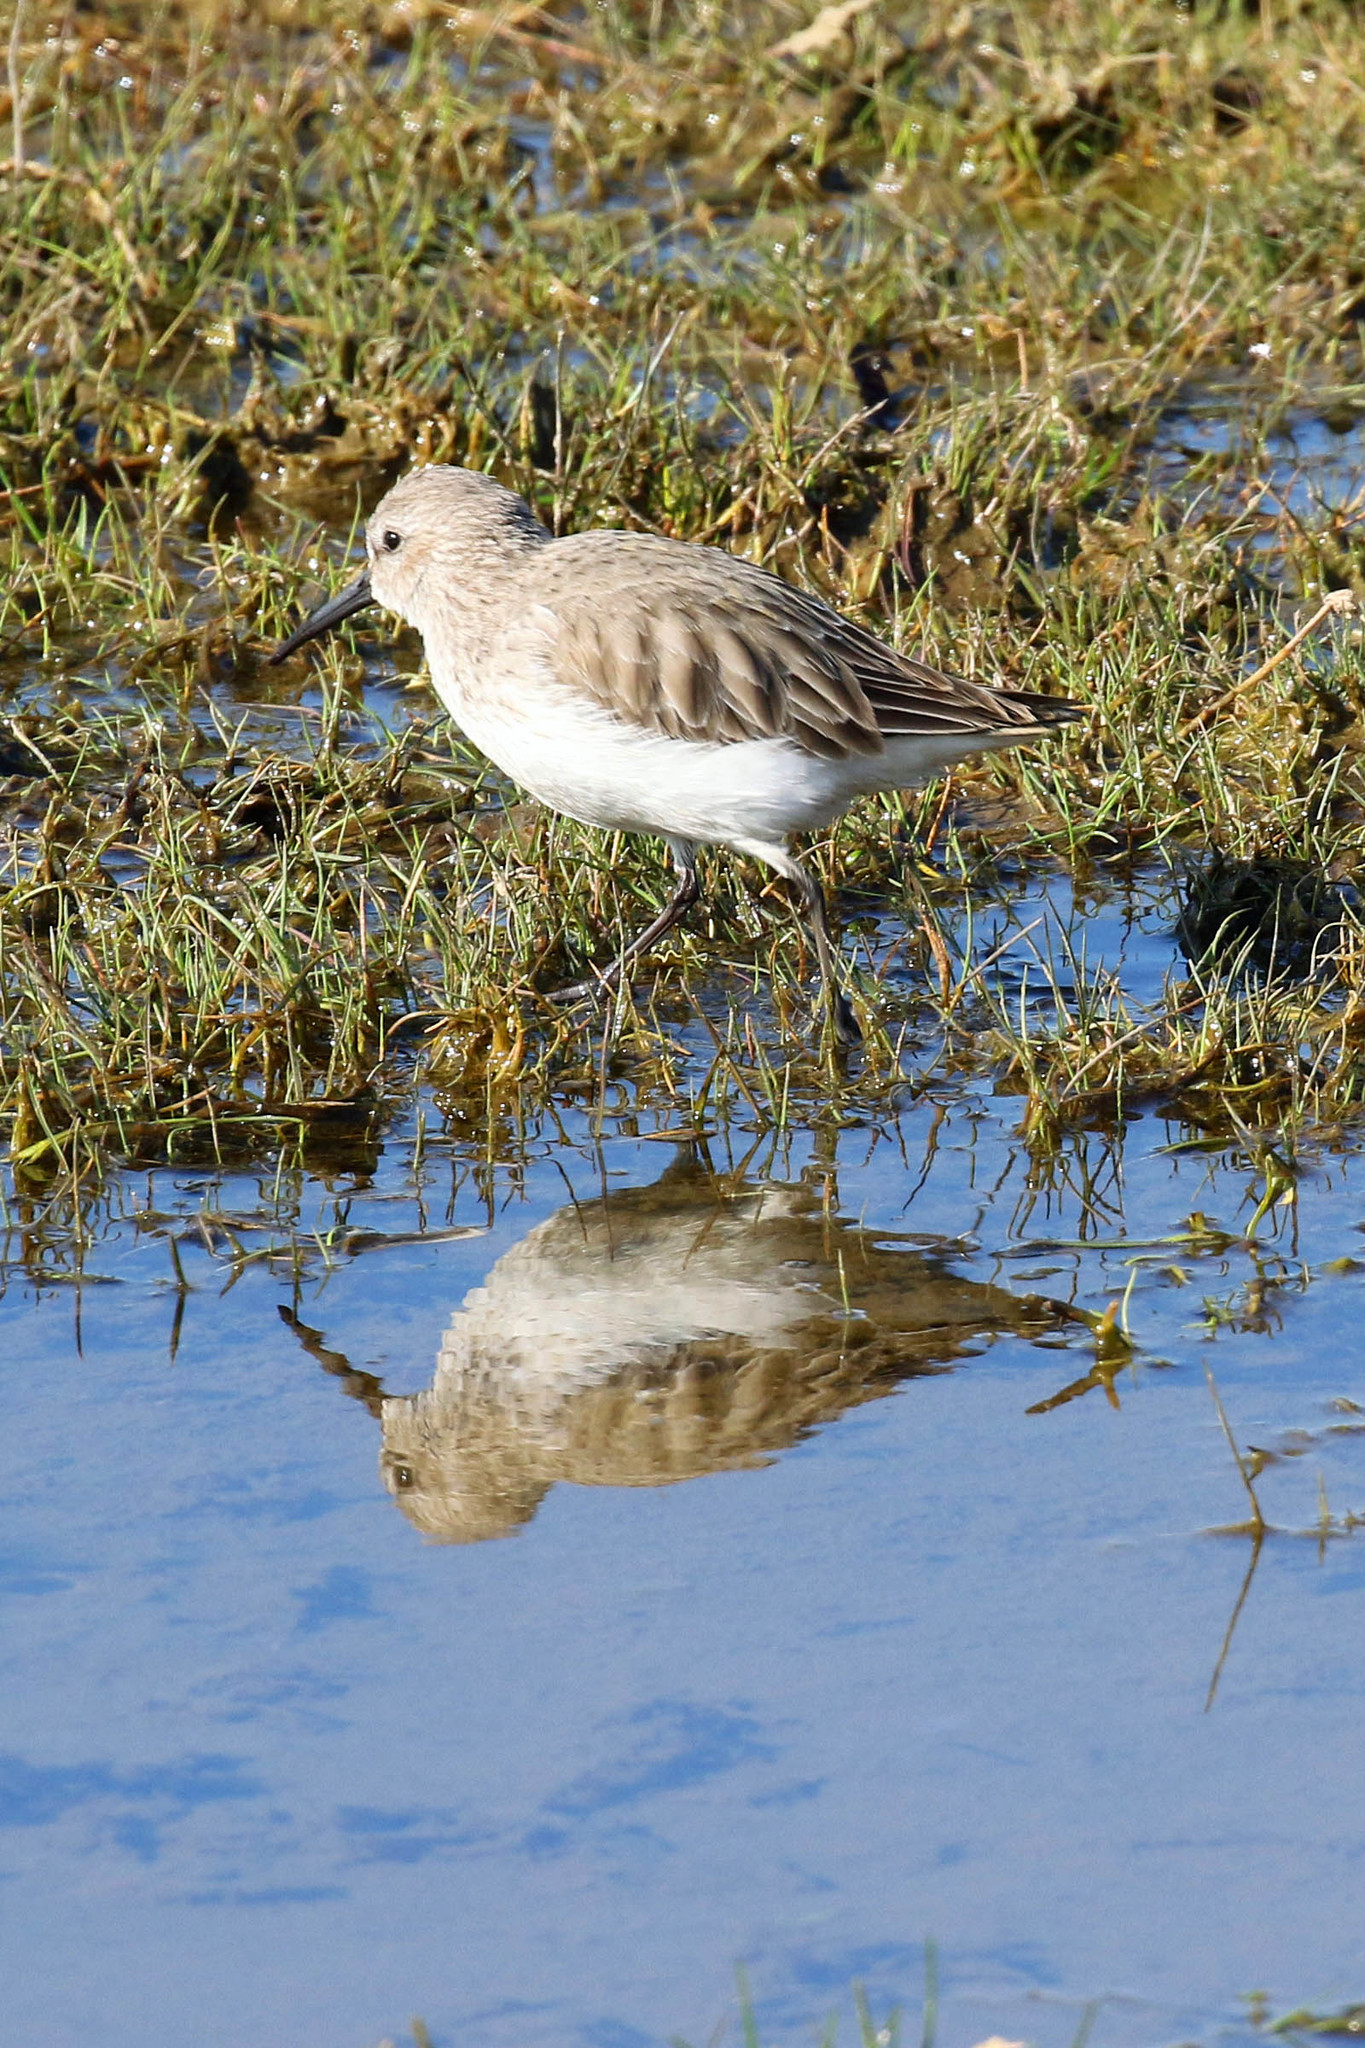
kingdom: Animalia
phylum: Chordata
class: Aves
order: Charadriiformes
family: Scolopacidae
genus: Calidris
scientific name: Calidris alpina
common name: Dunlin
